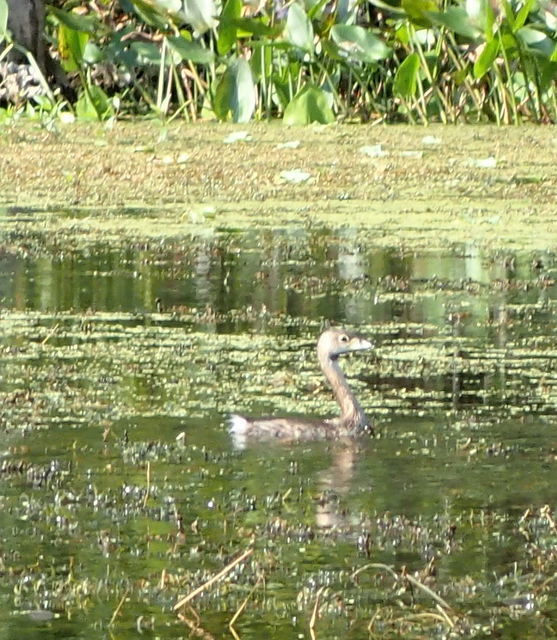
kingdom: Animalia
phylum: Chordata
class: Aves
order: Podicipediformes
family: Podicipedidae
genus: Podilymbus
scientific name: Podilymbus podiceps
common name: Pied-billed grebe
